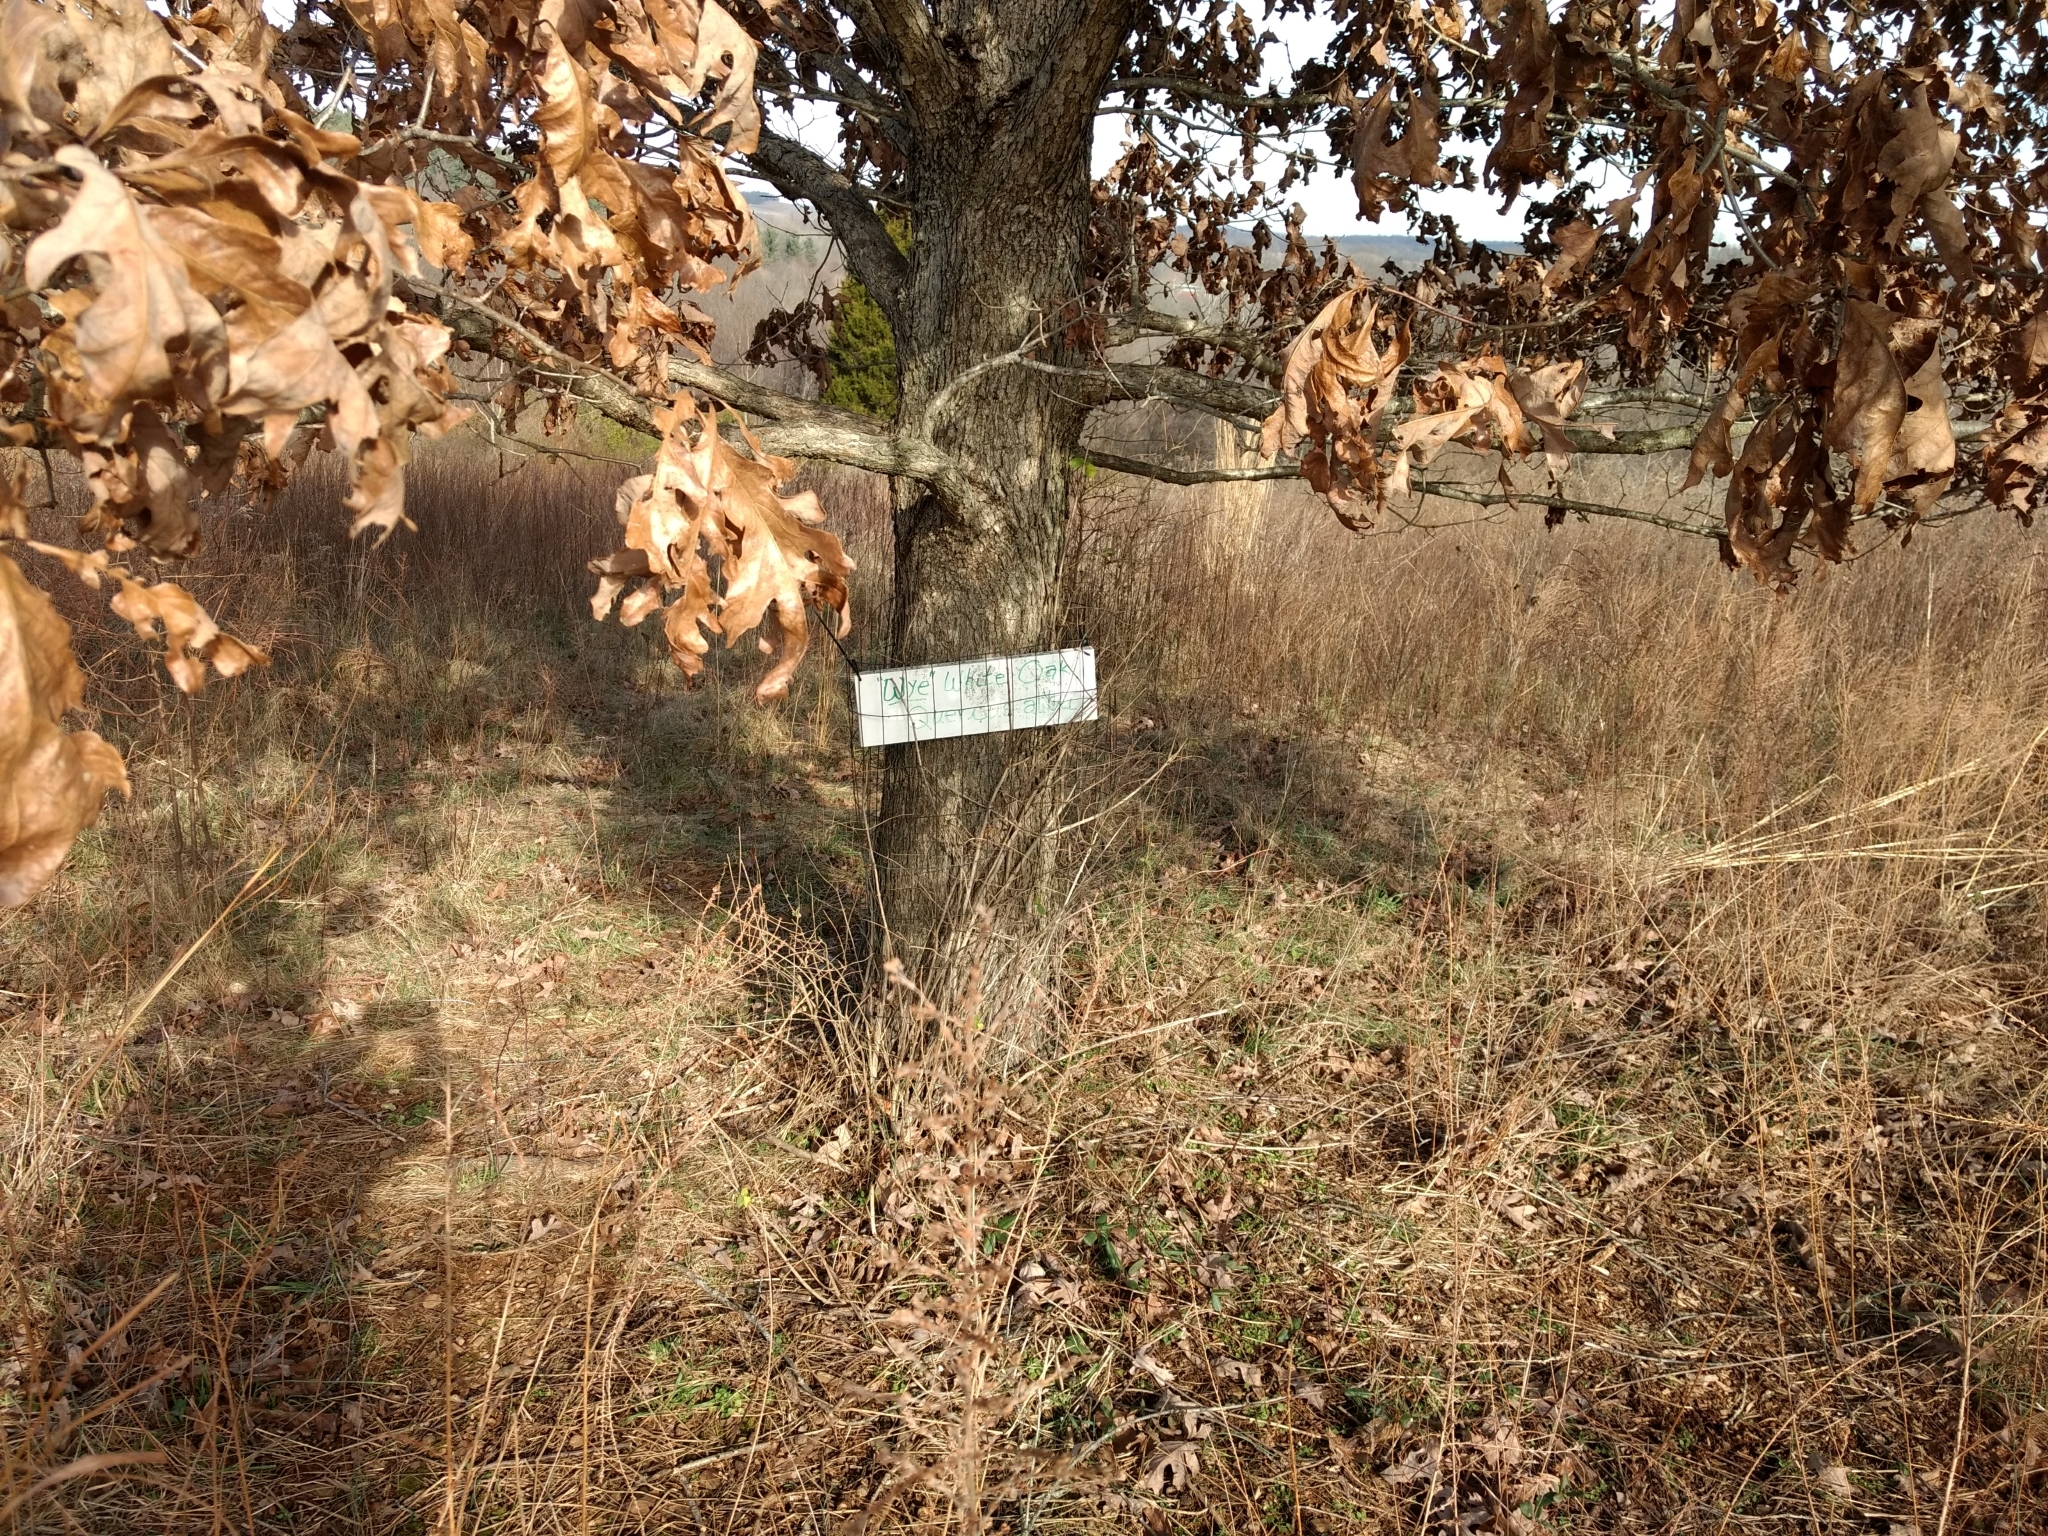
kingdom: Plantae
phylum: Tracheophyta
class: Magnoliopsida
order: Fagales
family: Fagaceae
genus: Quercus
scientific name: Quercus alba
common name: White oak
